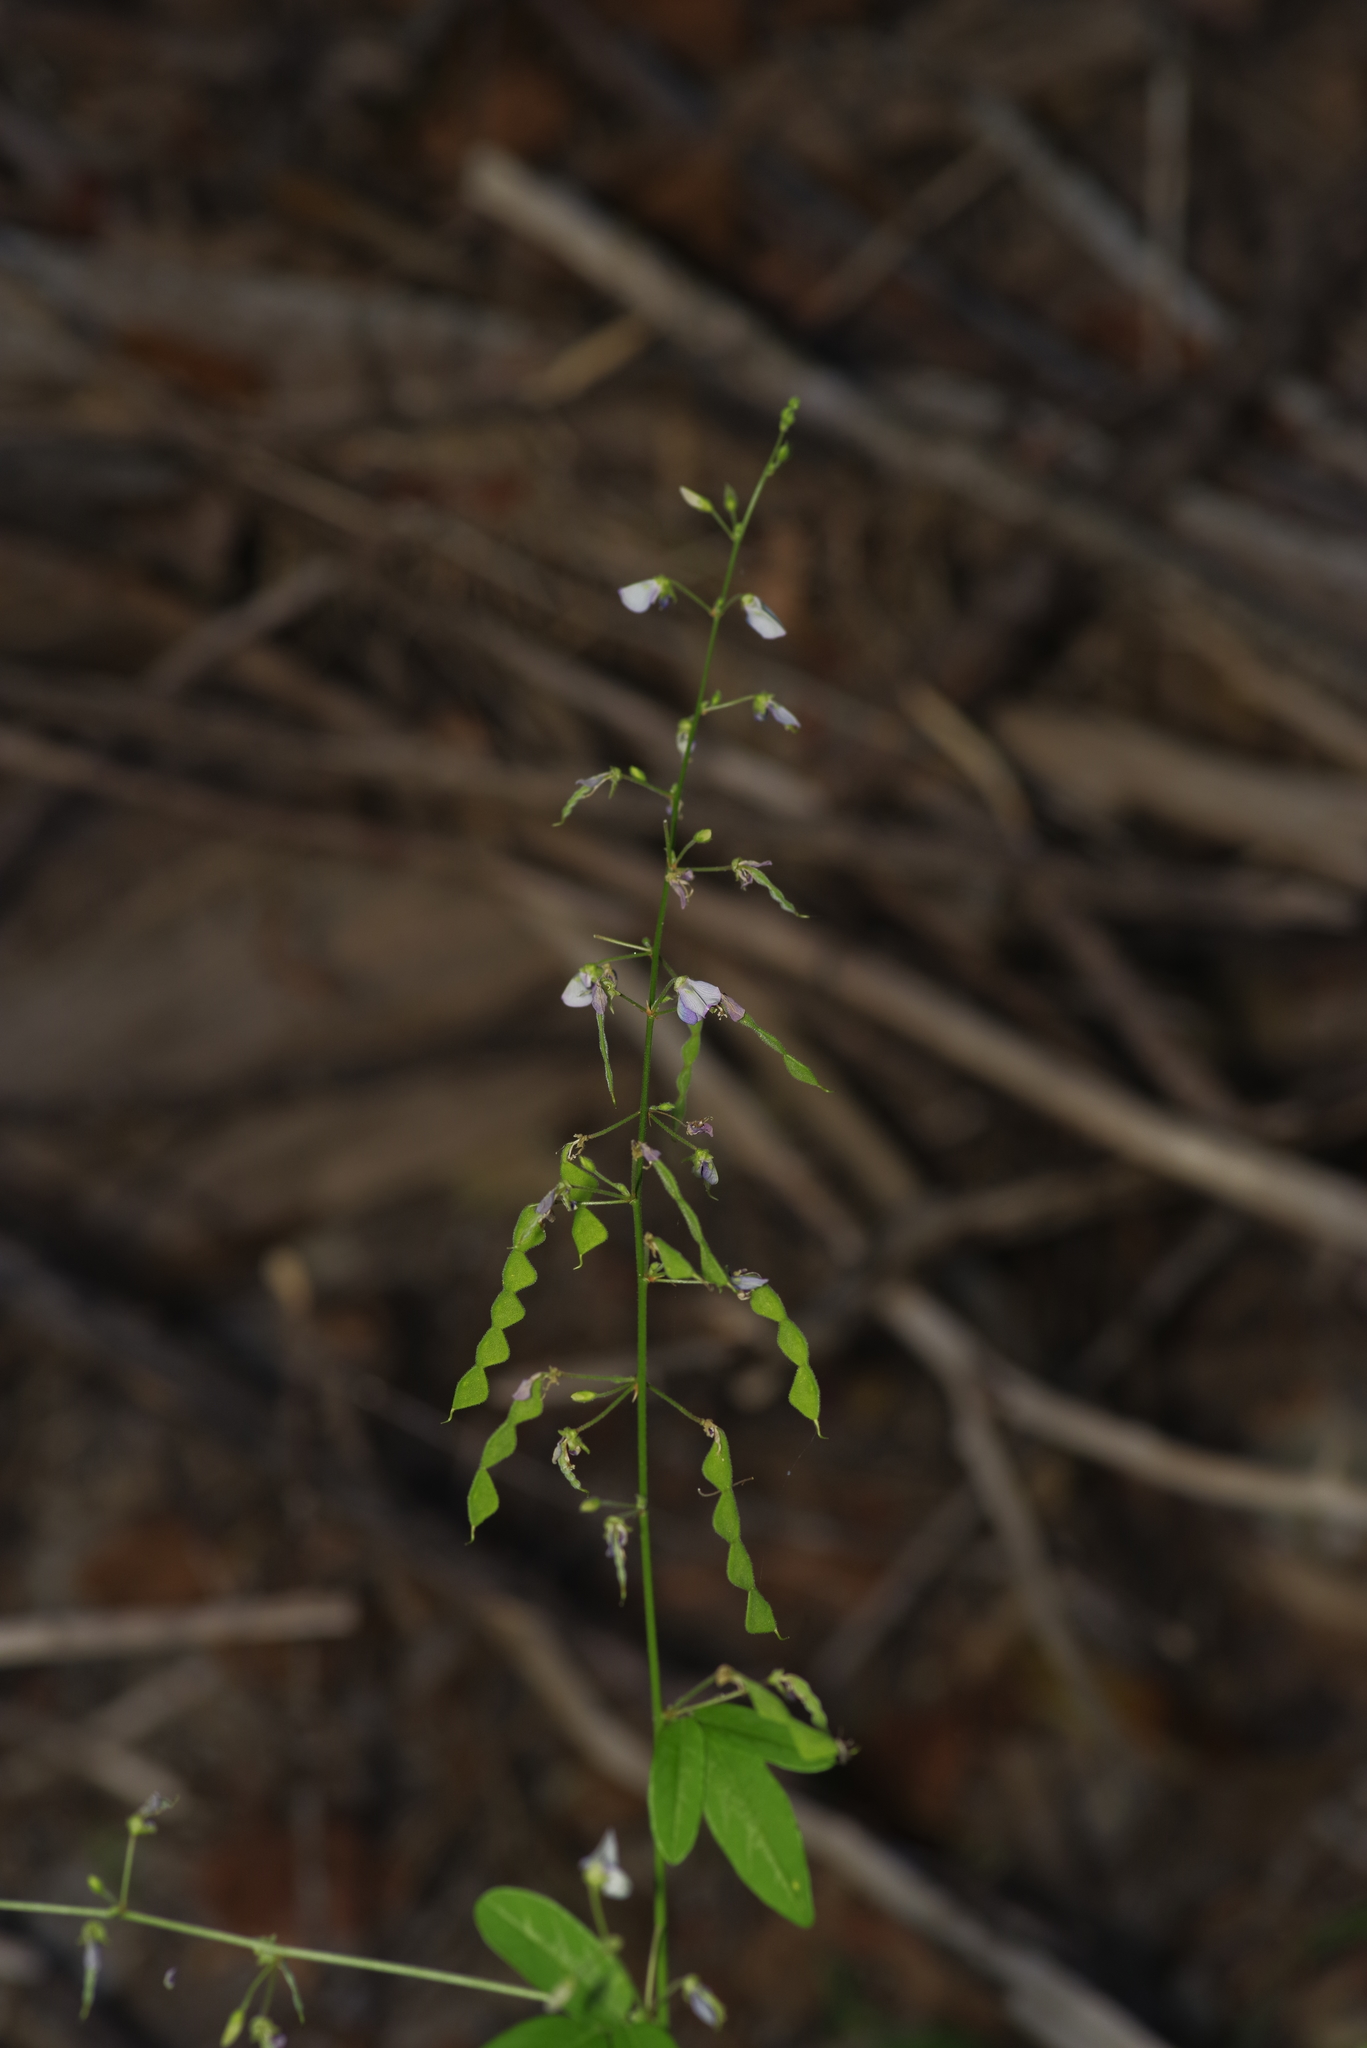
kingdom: Plantae
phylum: Tracheophyta
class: Magnoliopsida
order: Fabales
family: Fabaceae
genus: Desmodium
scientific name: Desmodium paniculatum
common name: Panicled tick-clover
